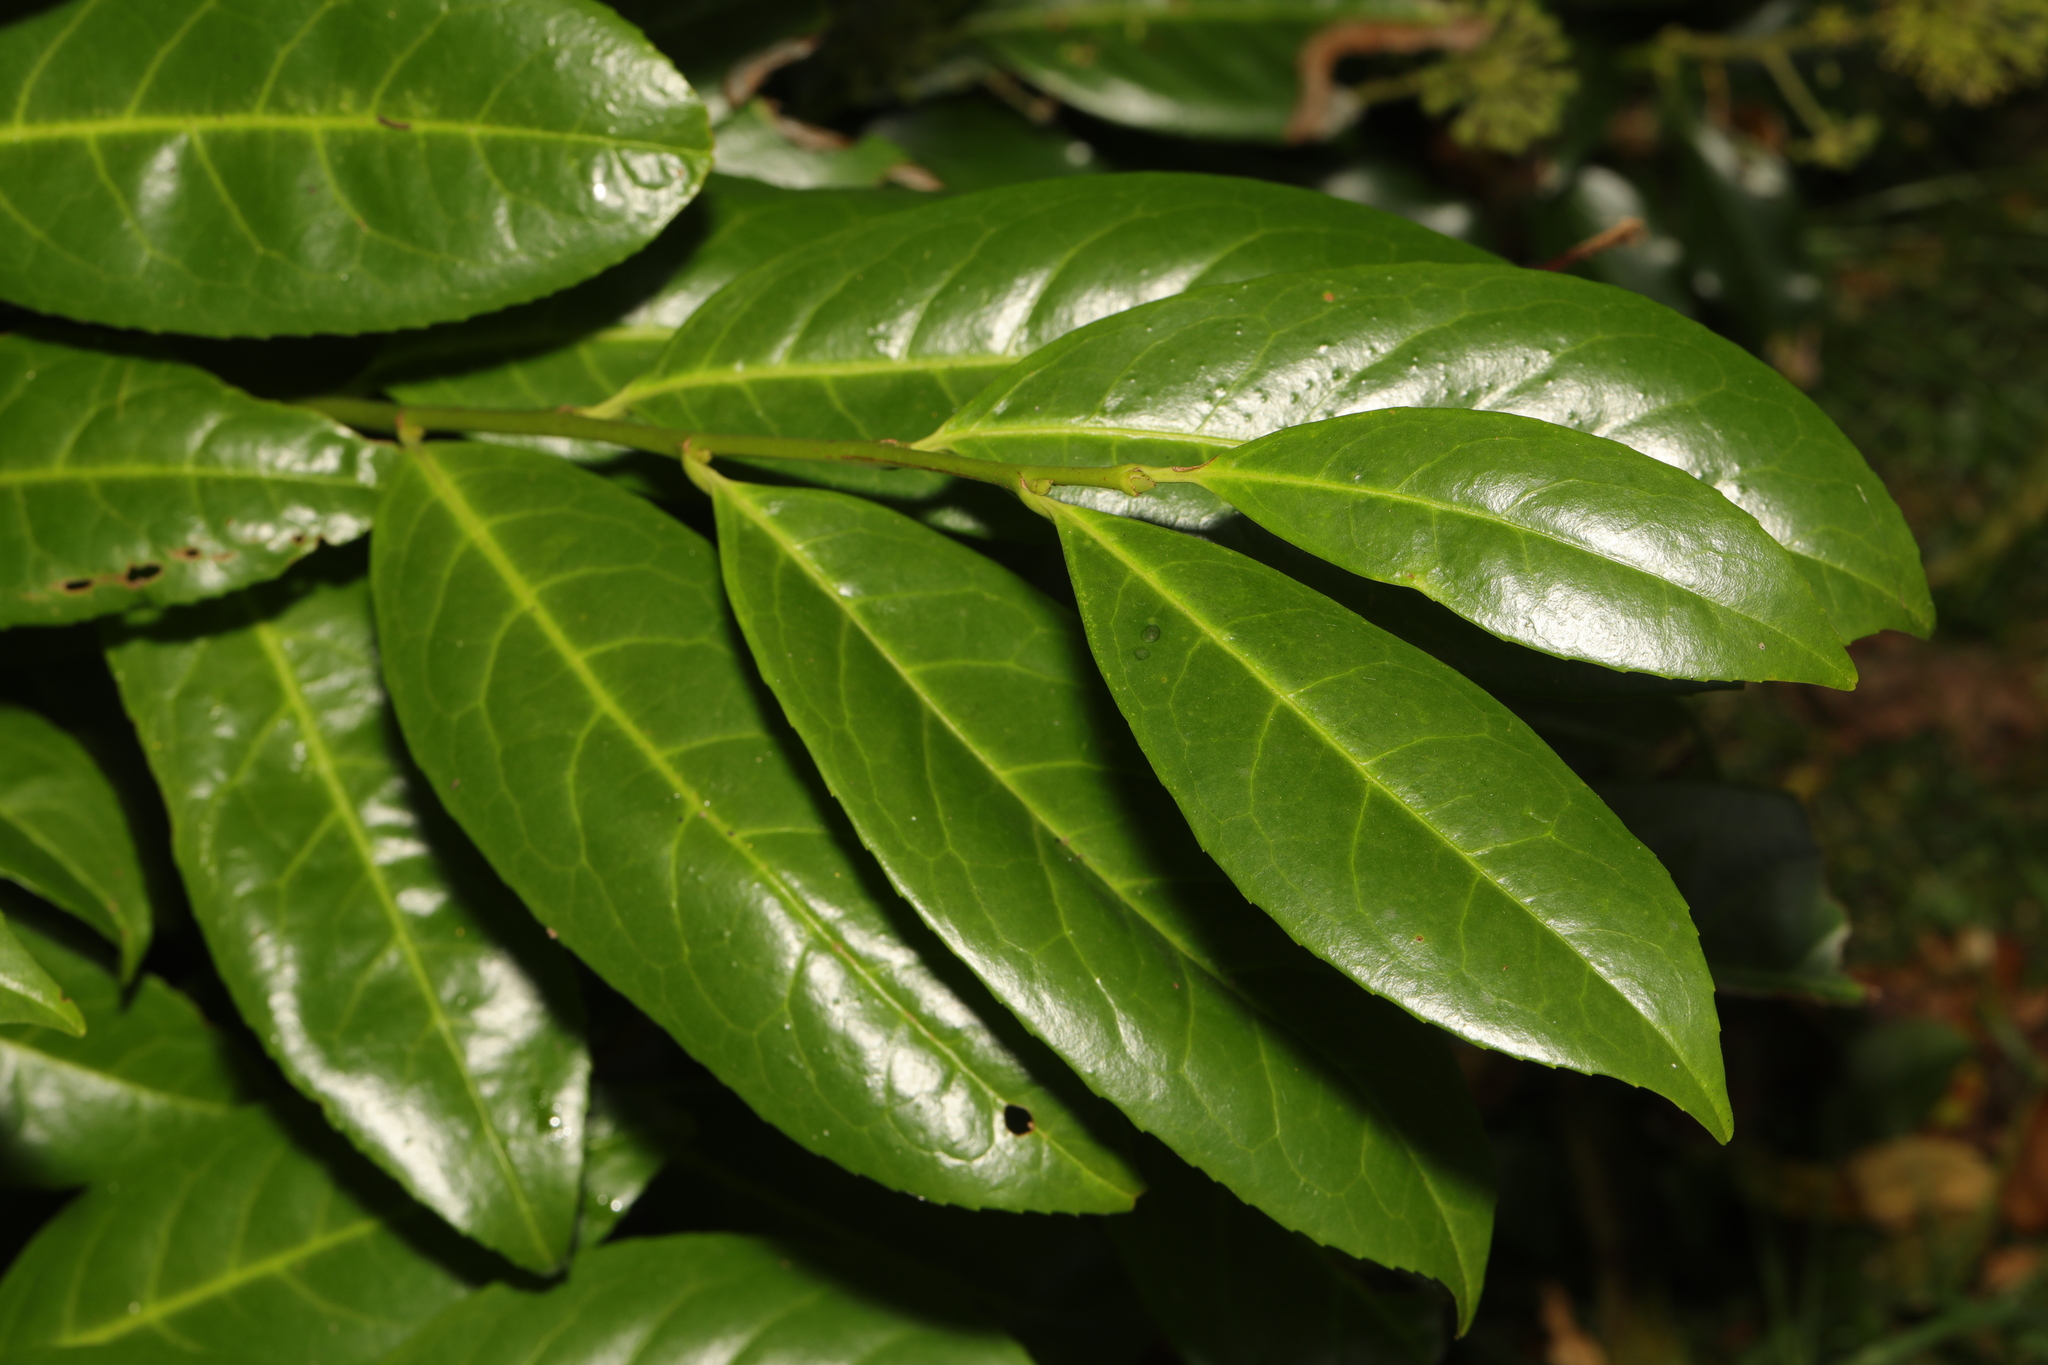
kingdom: Plantae
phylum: Tracheophyta
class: Magnoliopsida
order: Rosales
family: Rosaceae
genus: Prunus
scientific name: Prunus laurocerasus
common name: Cherry laurel
